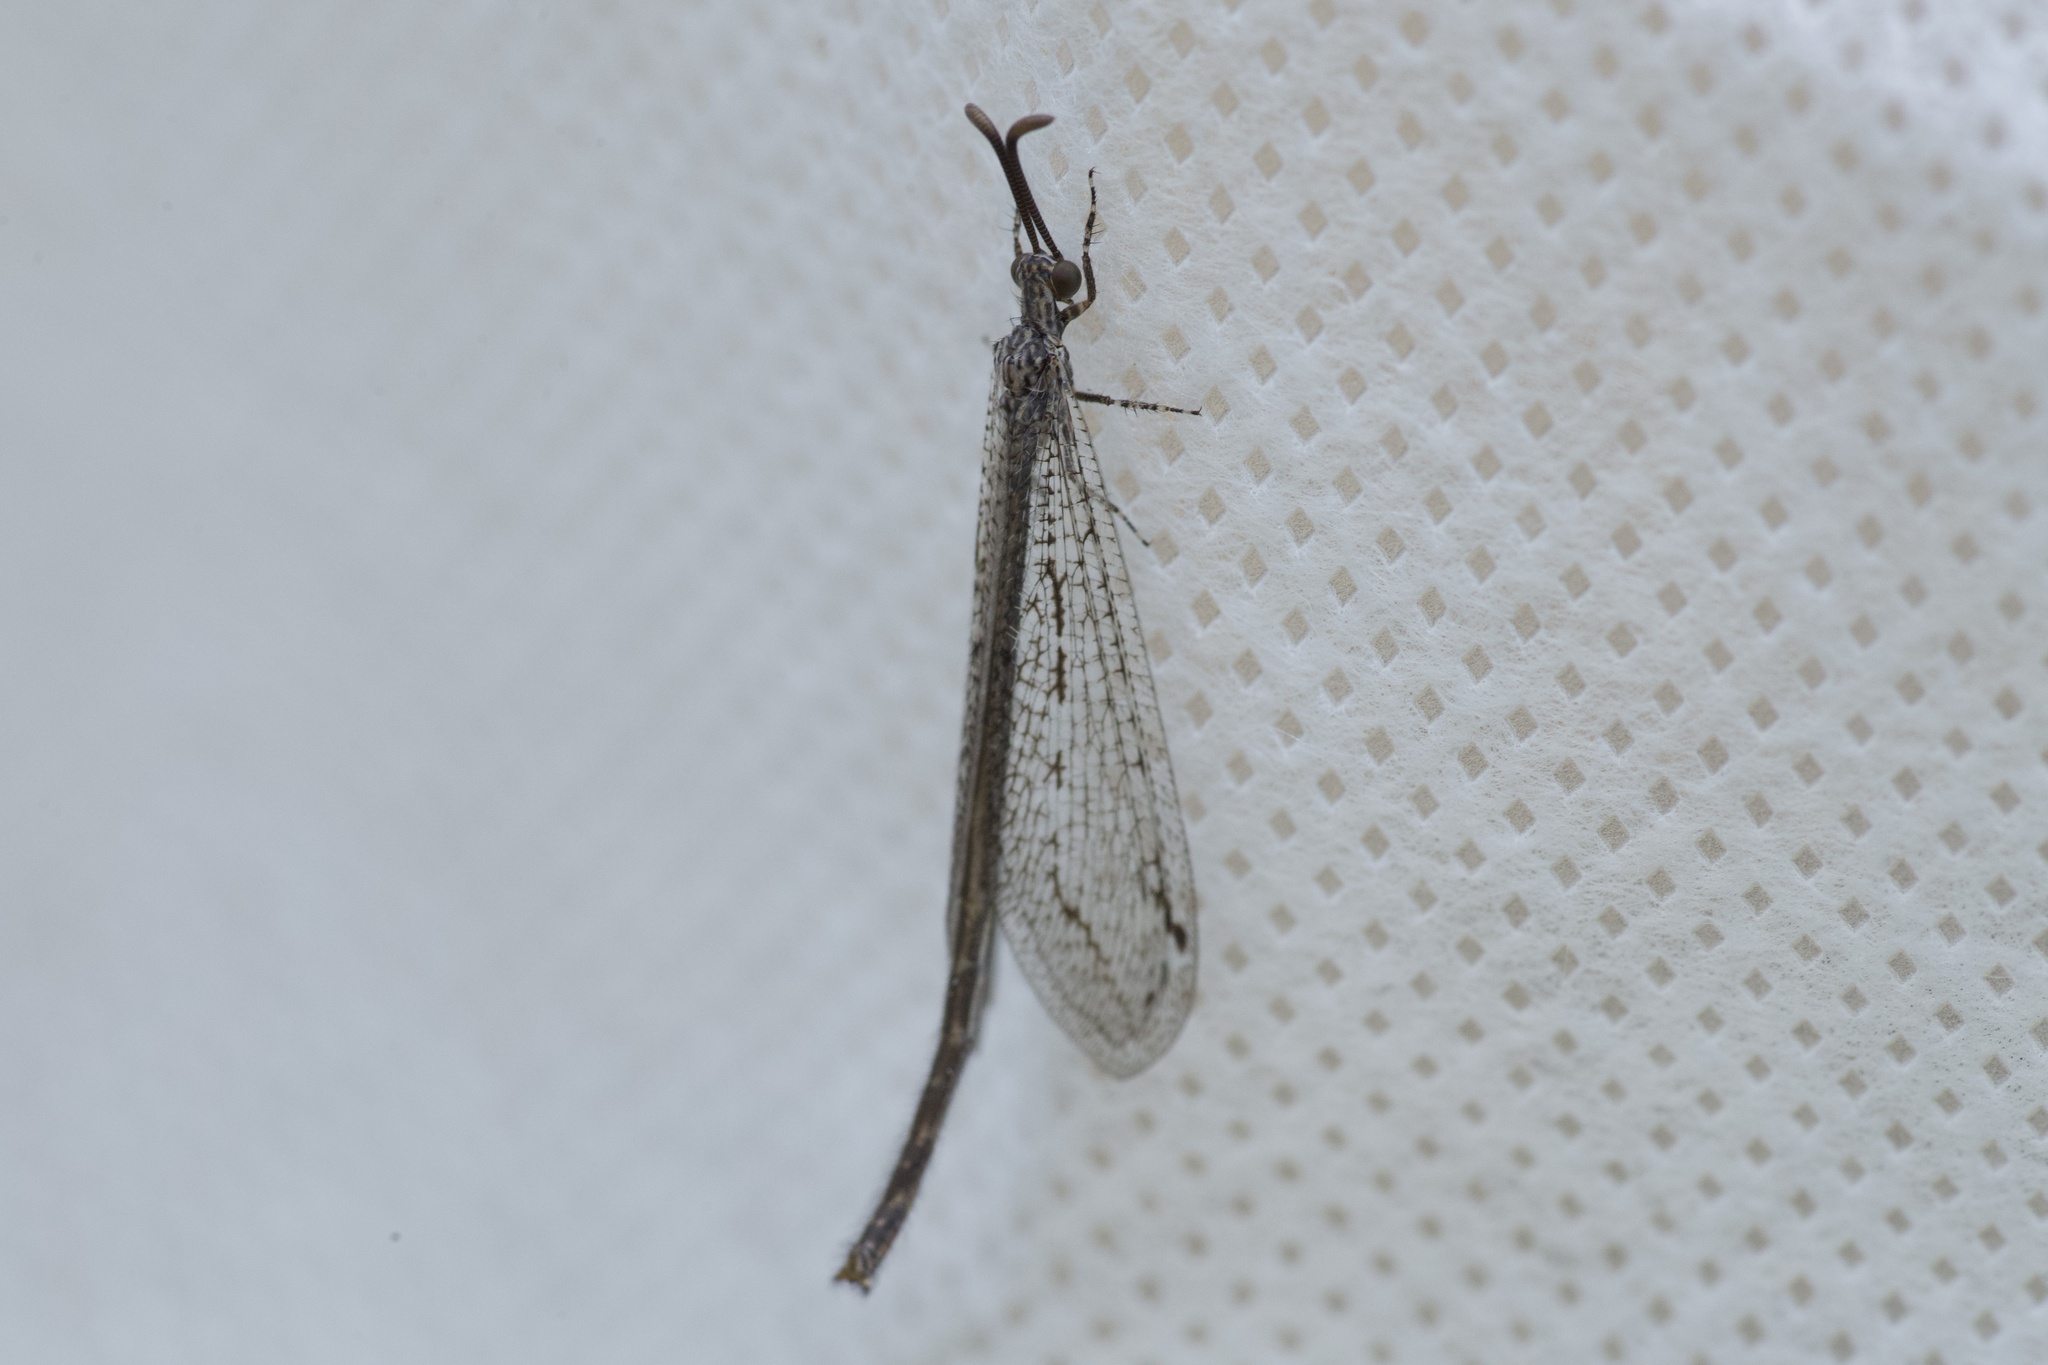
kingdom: Animalia
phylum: Arthropoda
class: Insecta
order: Neuroptera
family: Myrmeleontidae
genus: Mexoleon
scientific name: Mexoleon papago
